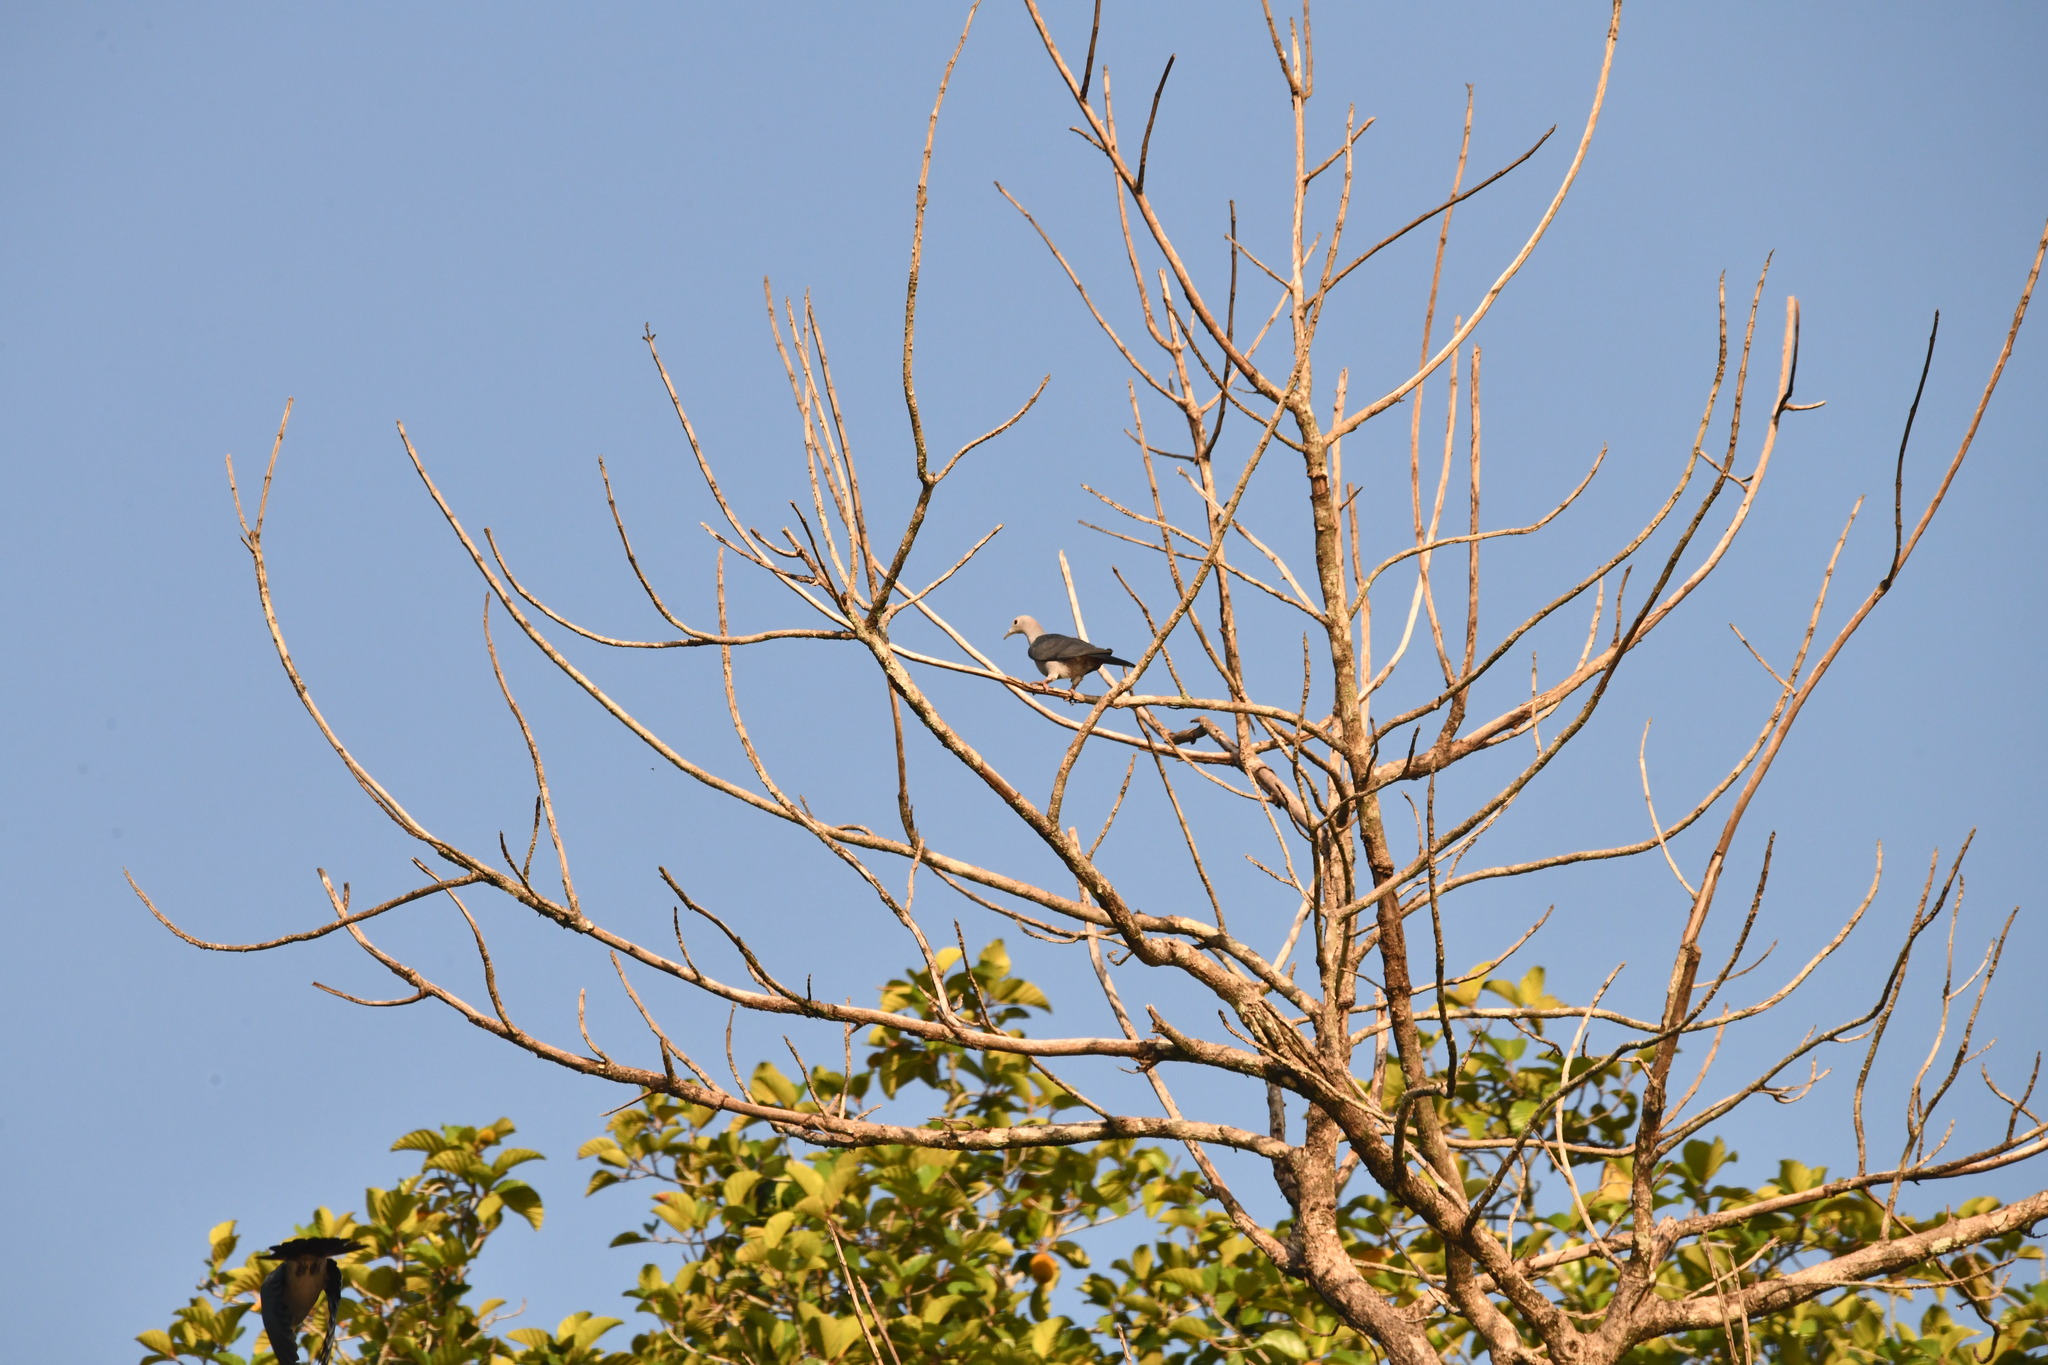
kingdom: Animalia
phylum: Chordata
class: Aves
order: Columbiformes
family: Columbidae
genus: Ducula
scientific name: Ducula aenea
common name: Green imperial pigeon
